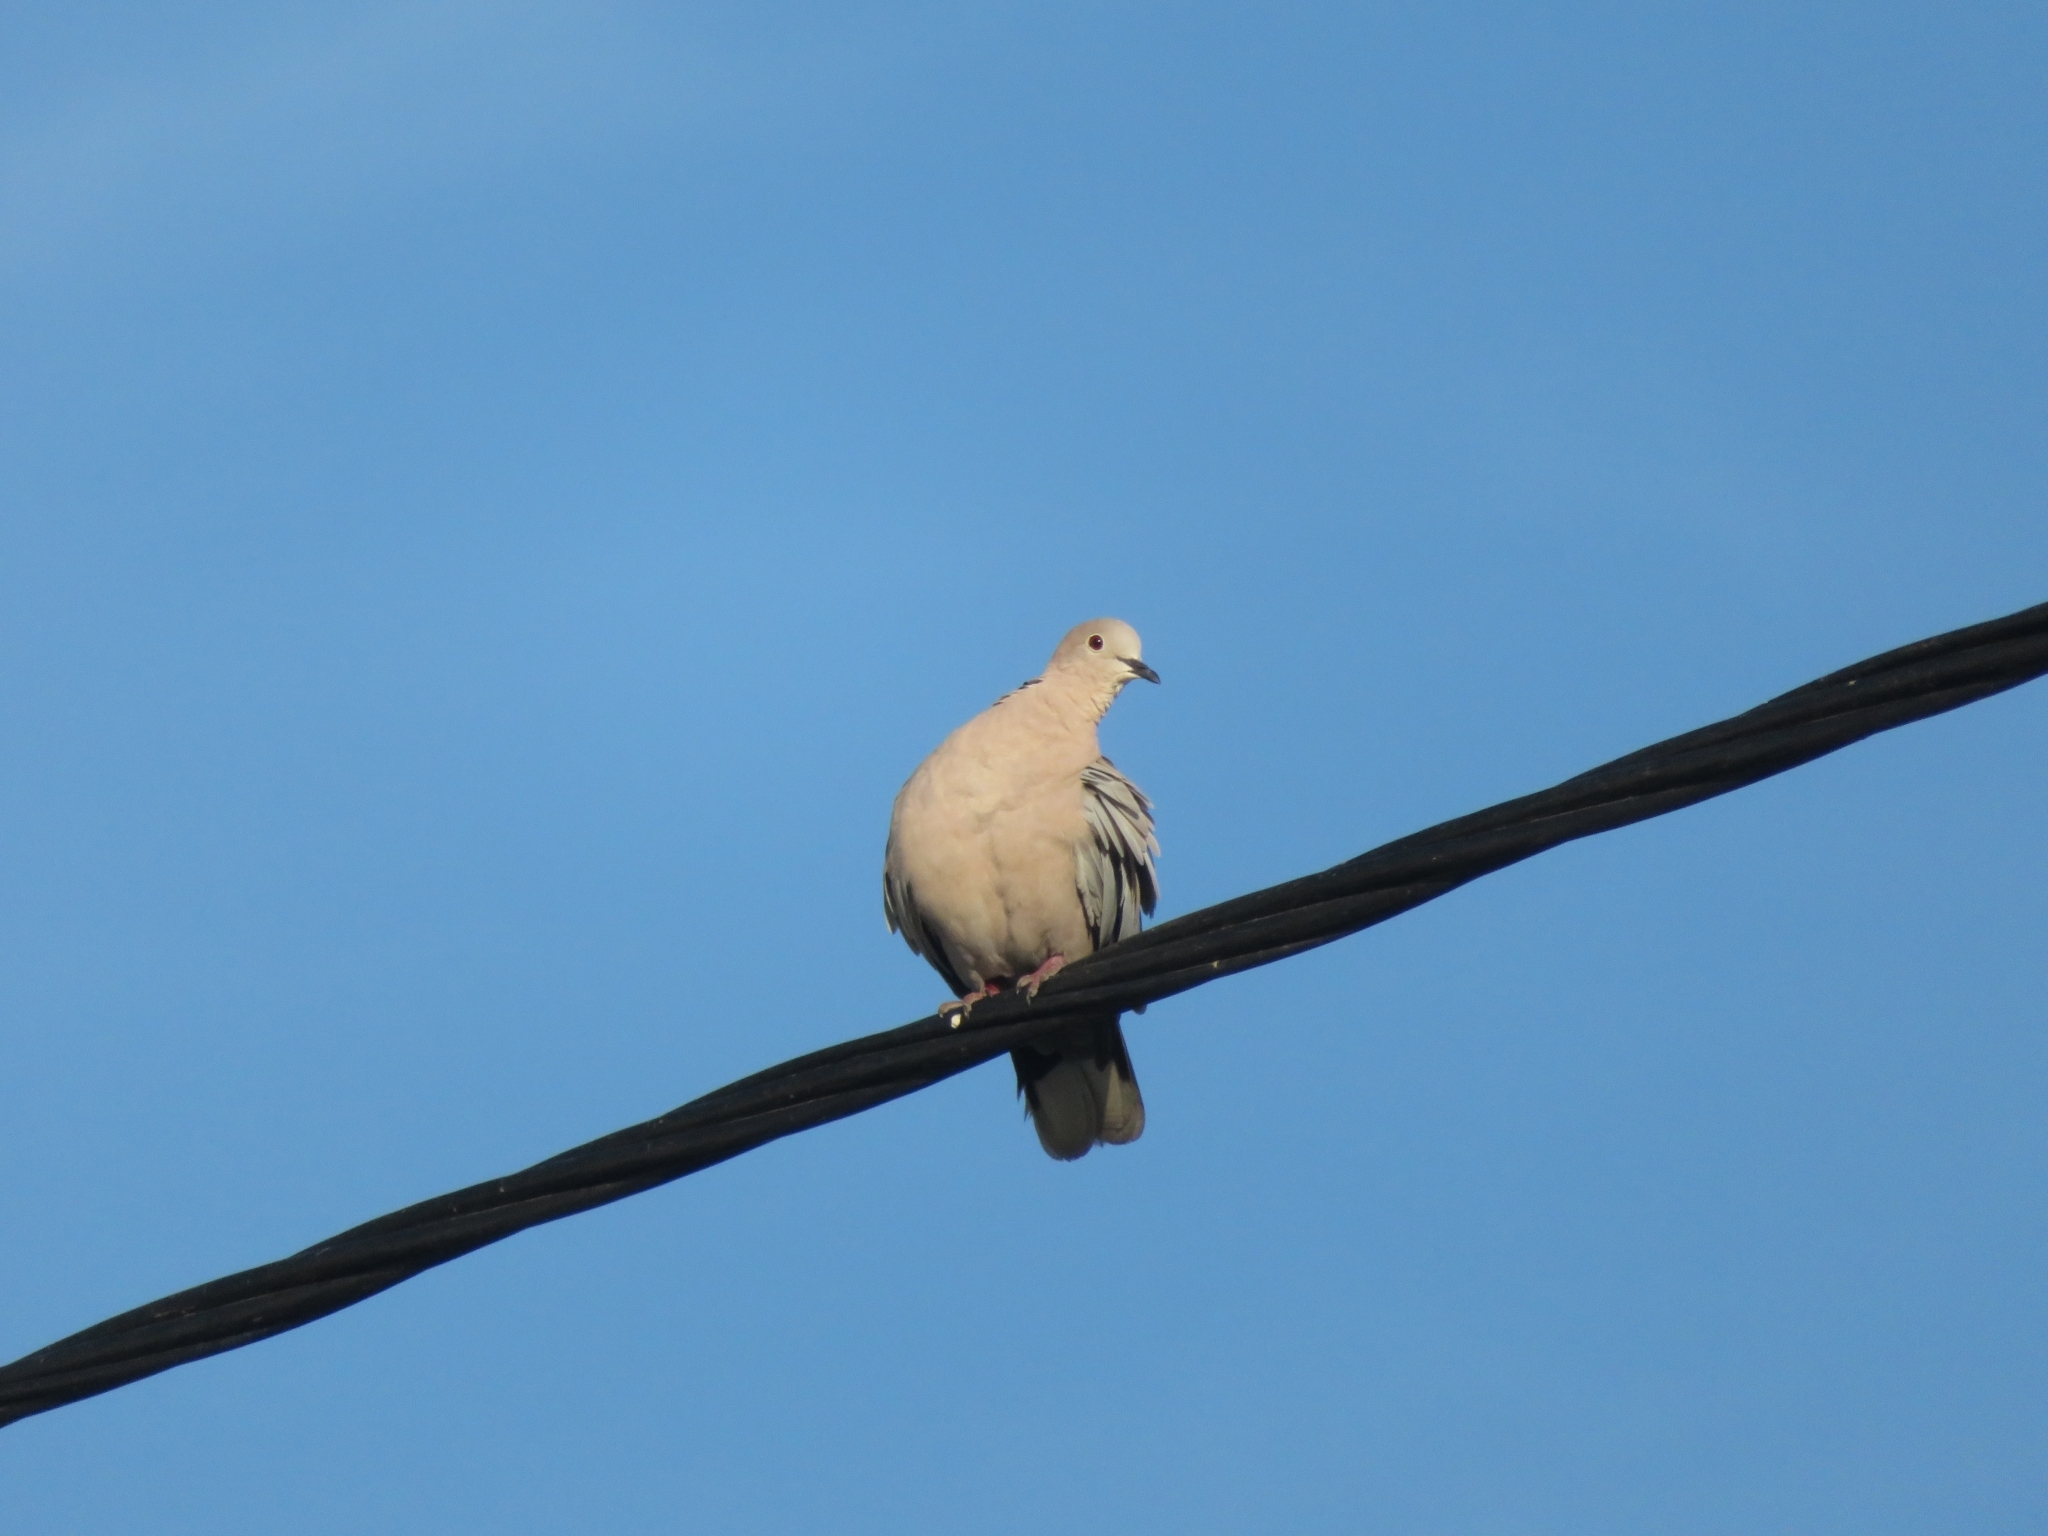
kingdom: Animalia
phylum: Chordata
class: Aves
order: Columbiformes
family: Columbidae
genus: Streptopelia
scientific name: Streptopelia decaocto
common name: Eurasian collared dove
